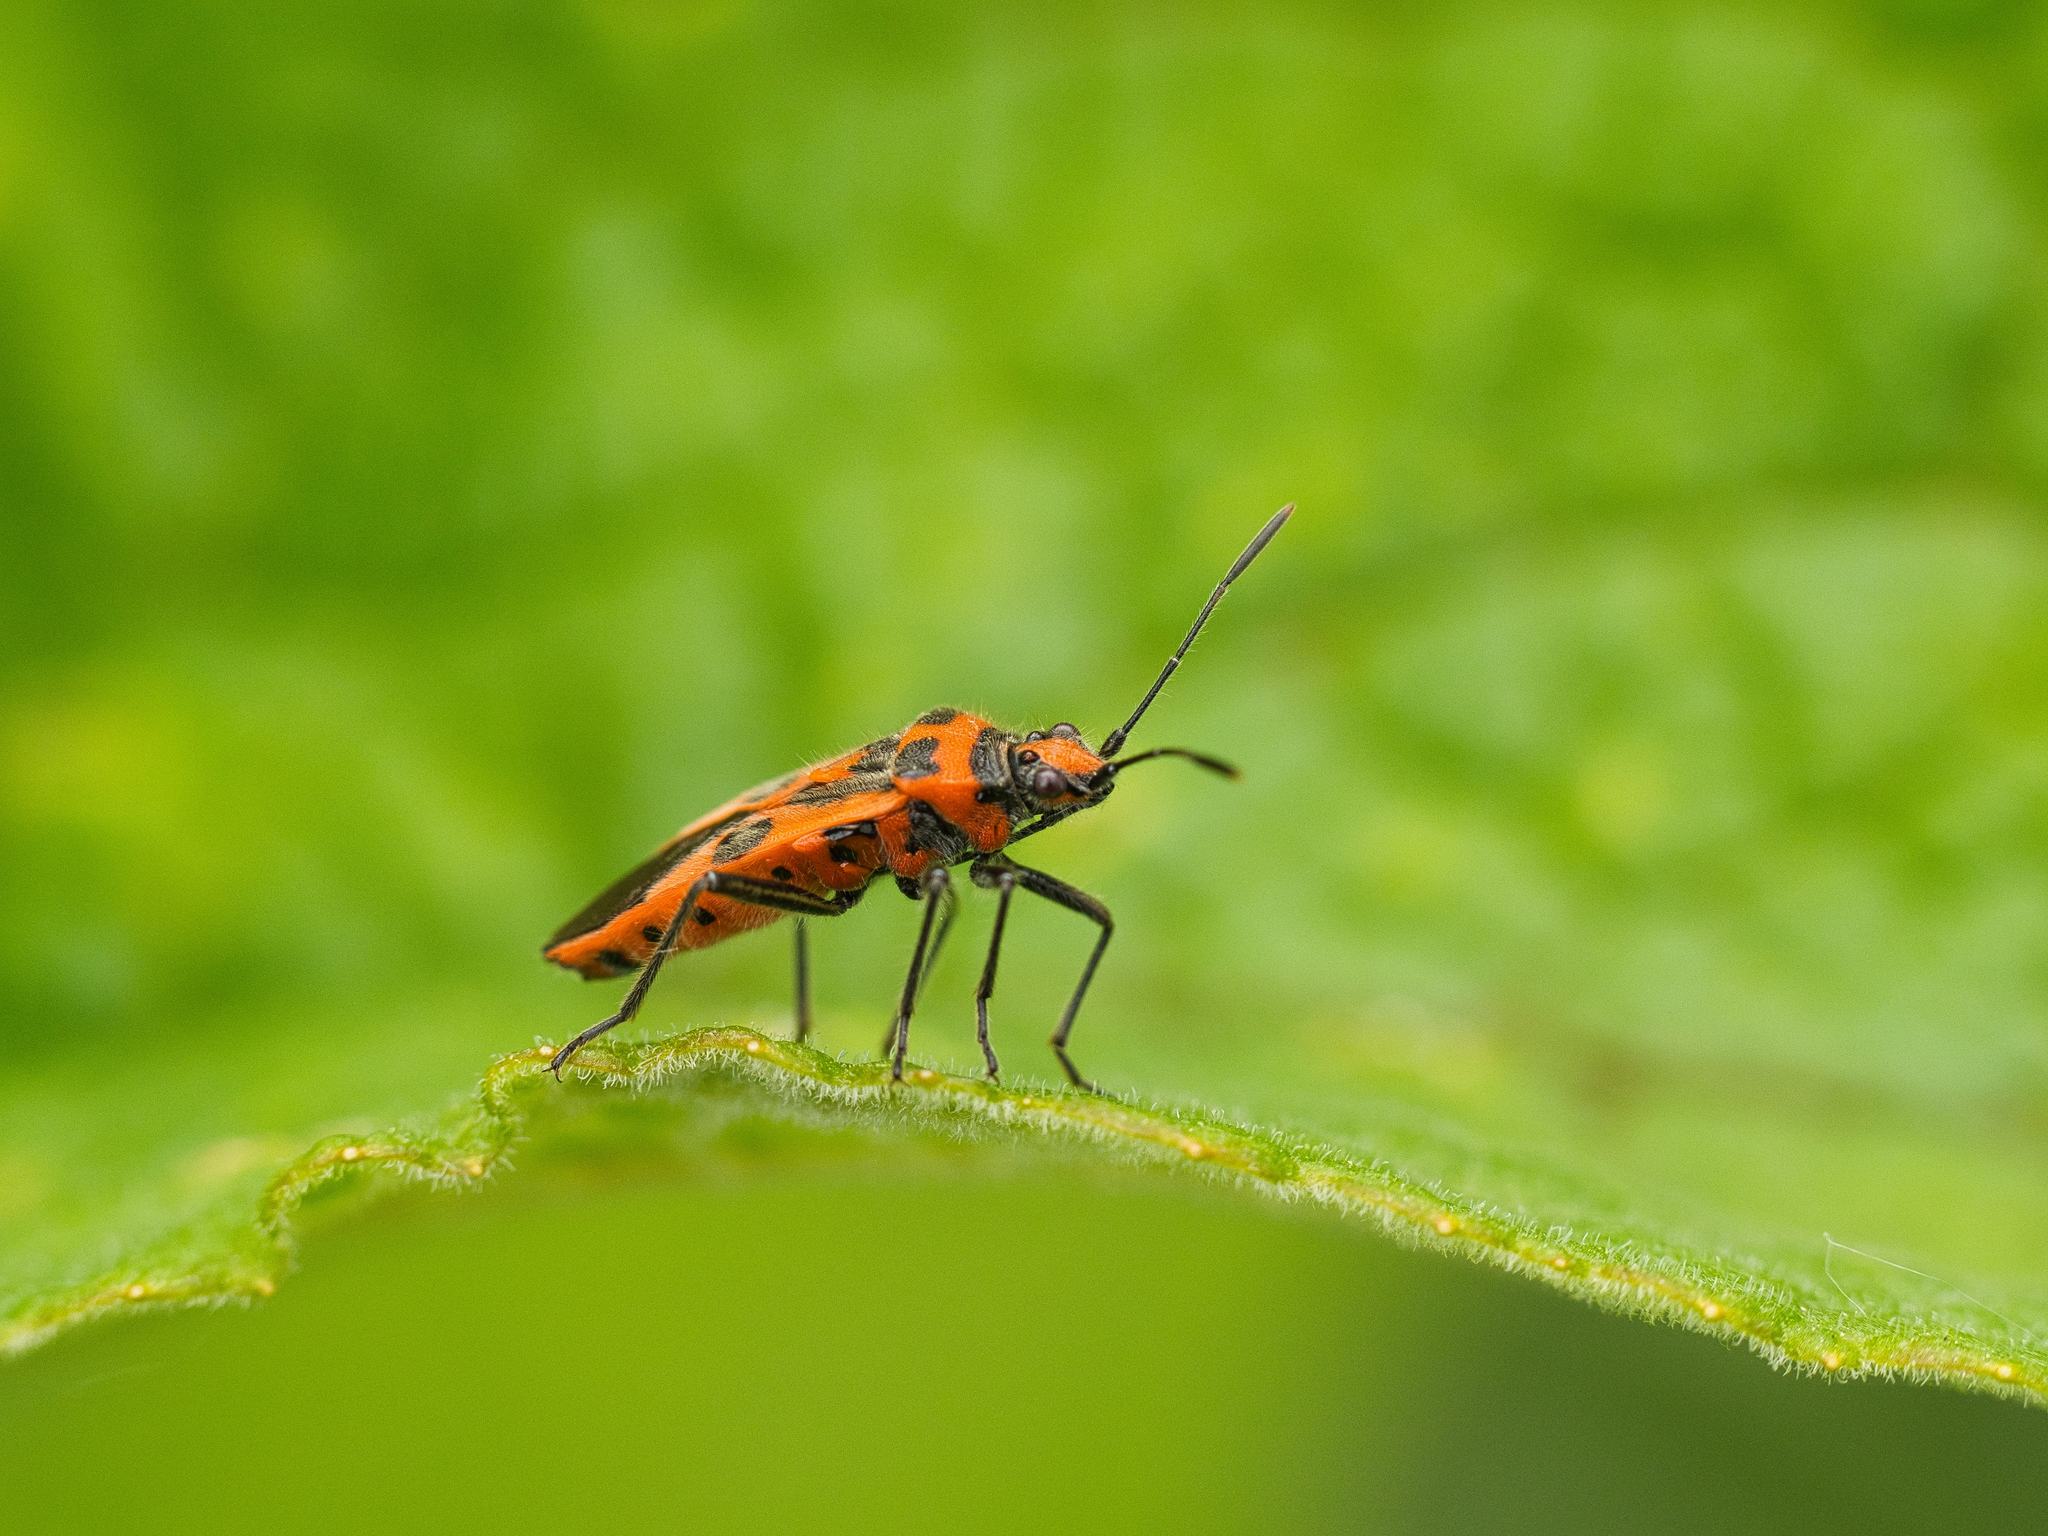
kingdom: Animalia
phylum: Arthropoda
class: Insecta
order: Hemiptera
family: Rhopalidae
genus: Corizus
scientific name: Corizus hyoscyami
